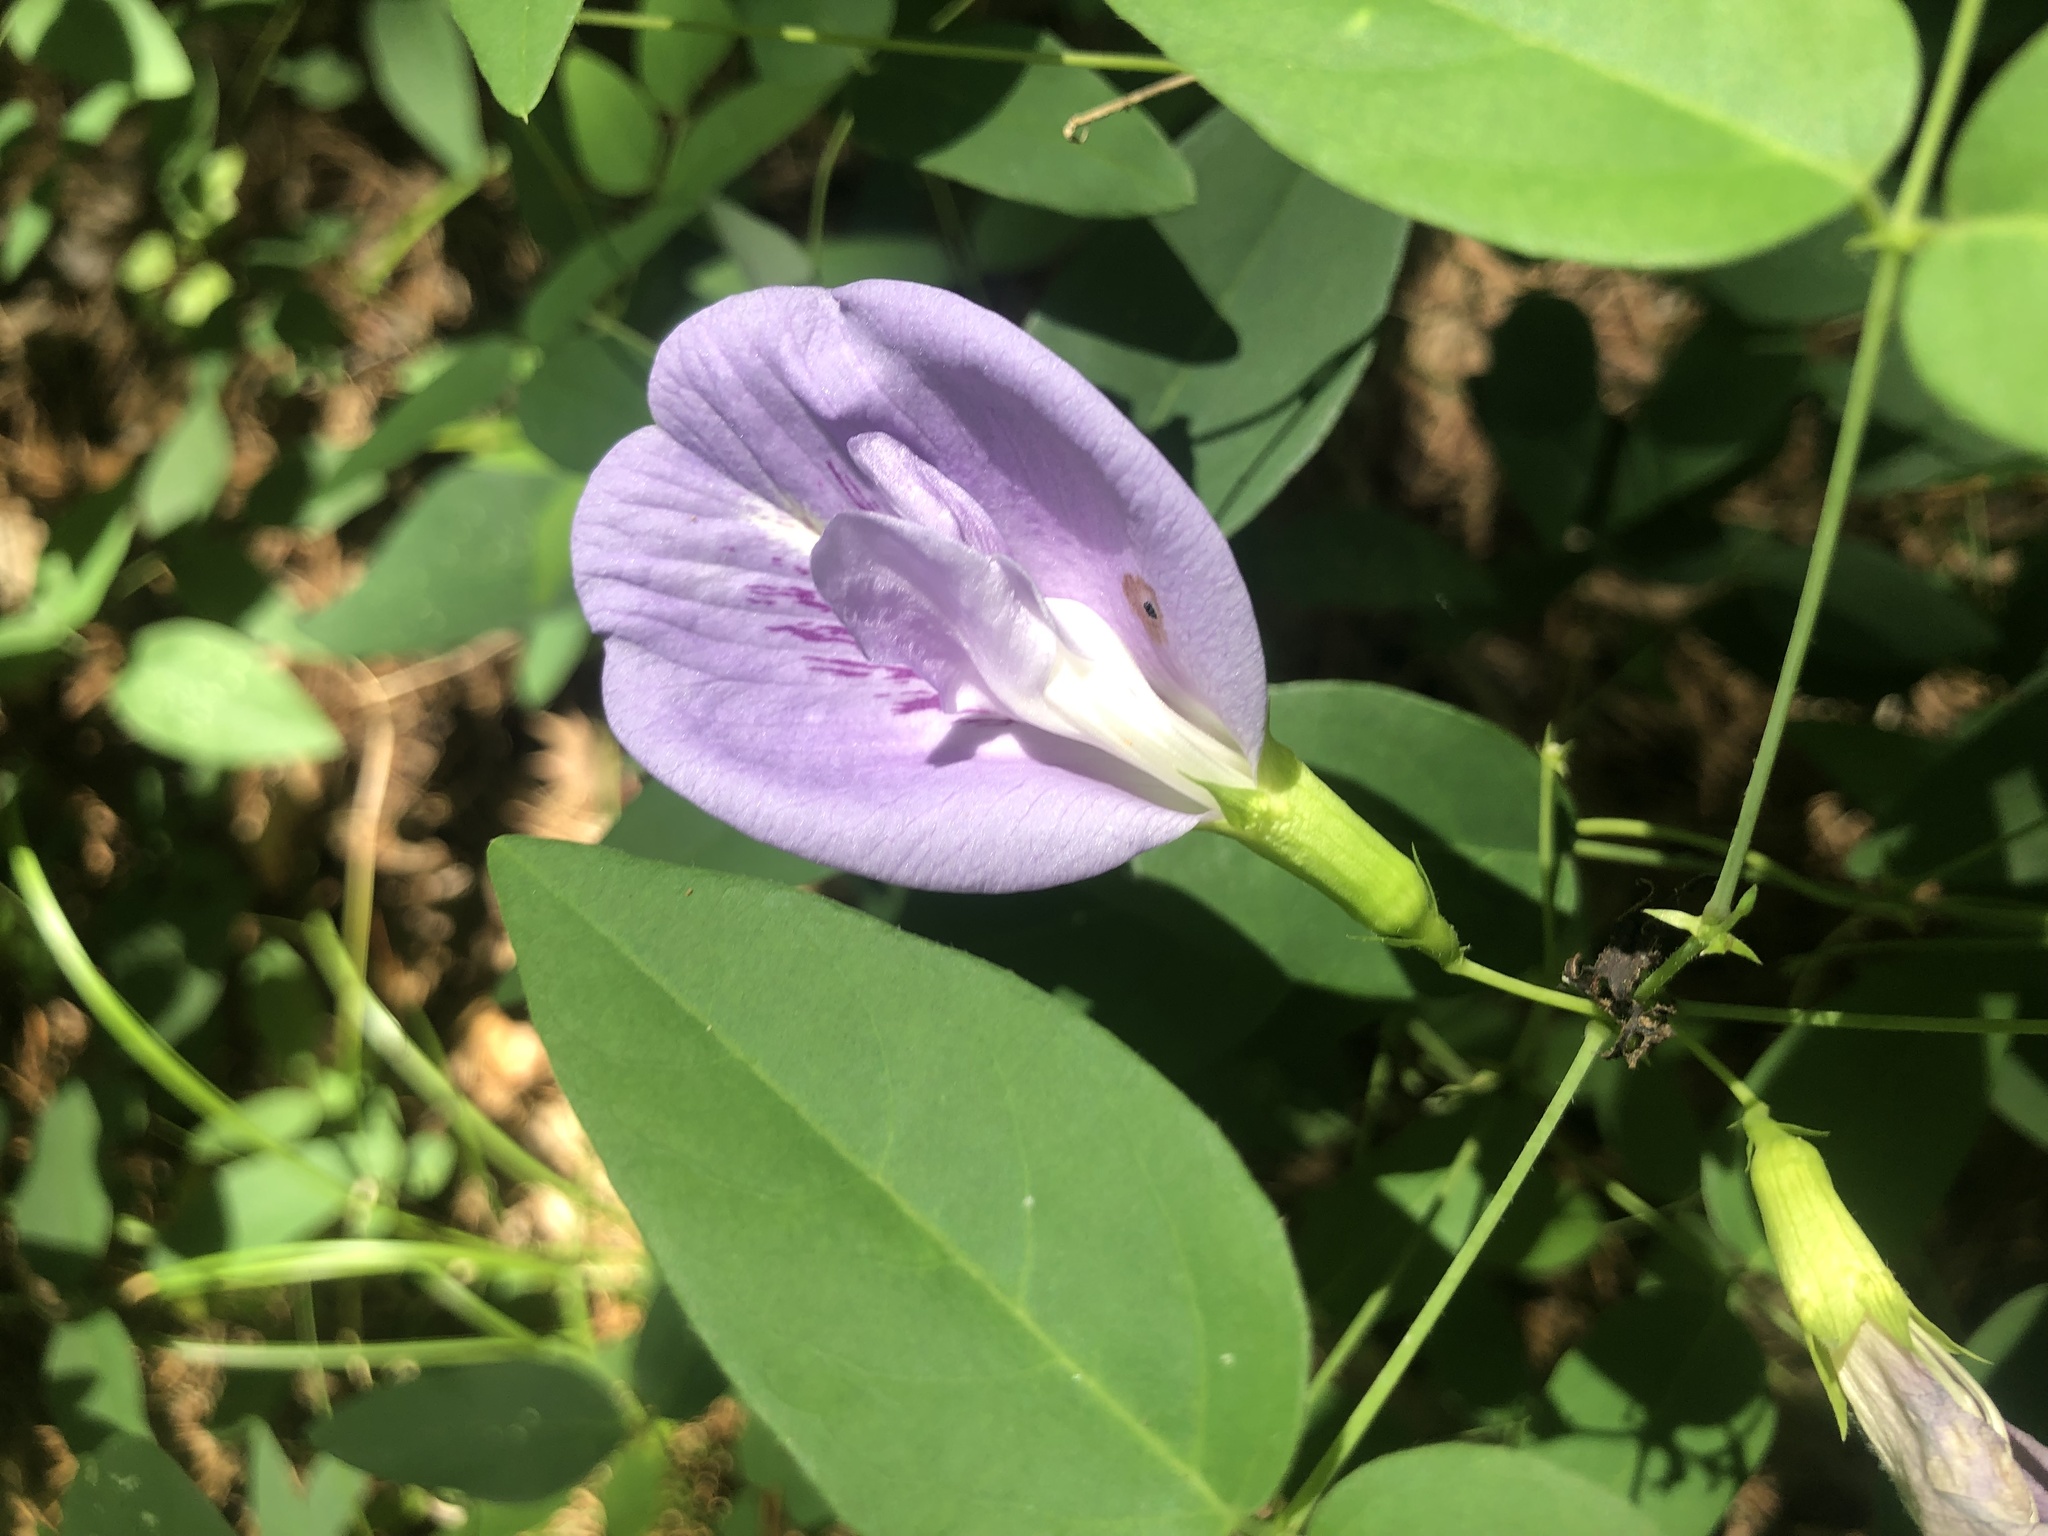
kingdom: Plantae
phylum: Tracheophyta
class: Magnoliopsida
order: Fabales
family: Fabaceae
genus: Clitoria
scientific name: Clitoria mariana
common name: Butterfly-pea
